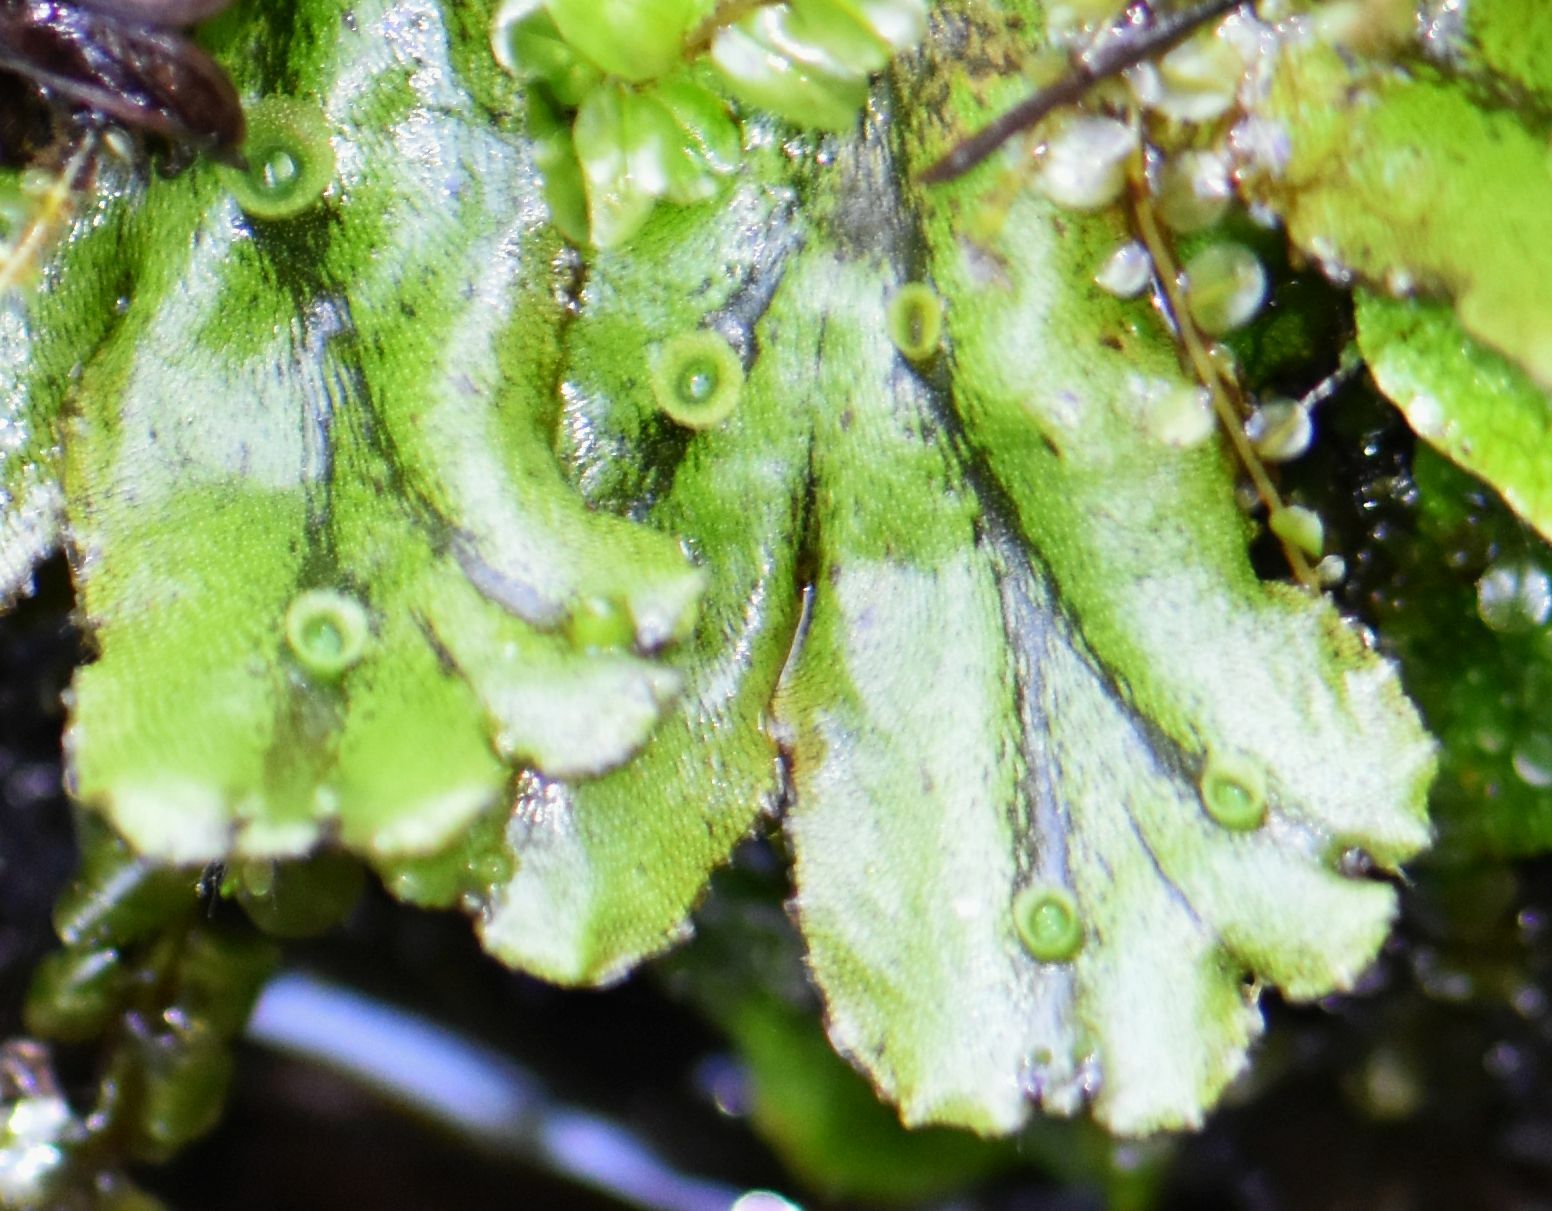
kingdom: Plantae
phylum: Marchantiophyta
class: Marchantiopsida
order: Marchantiales
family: Marchantiaceae
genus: Marchantia
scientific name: Marchantia polymorpha
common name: Common liverwort
